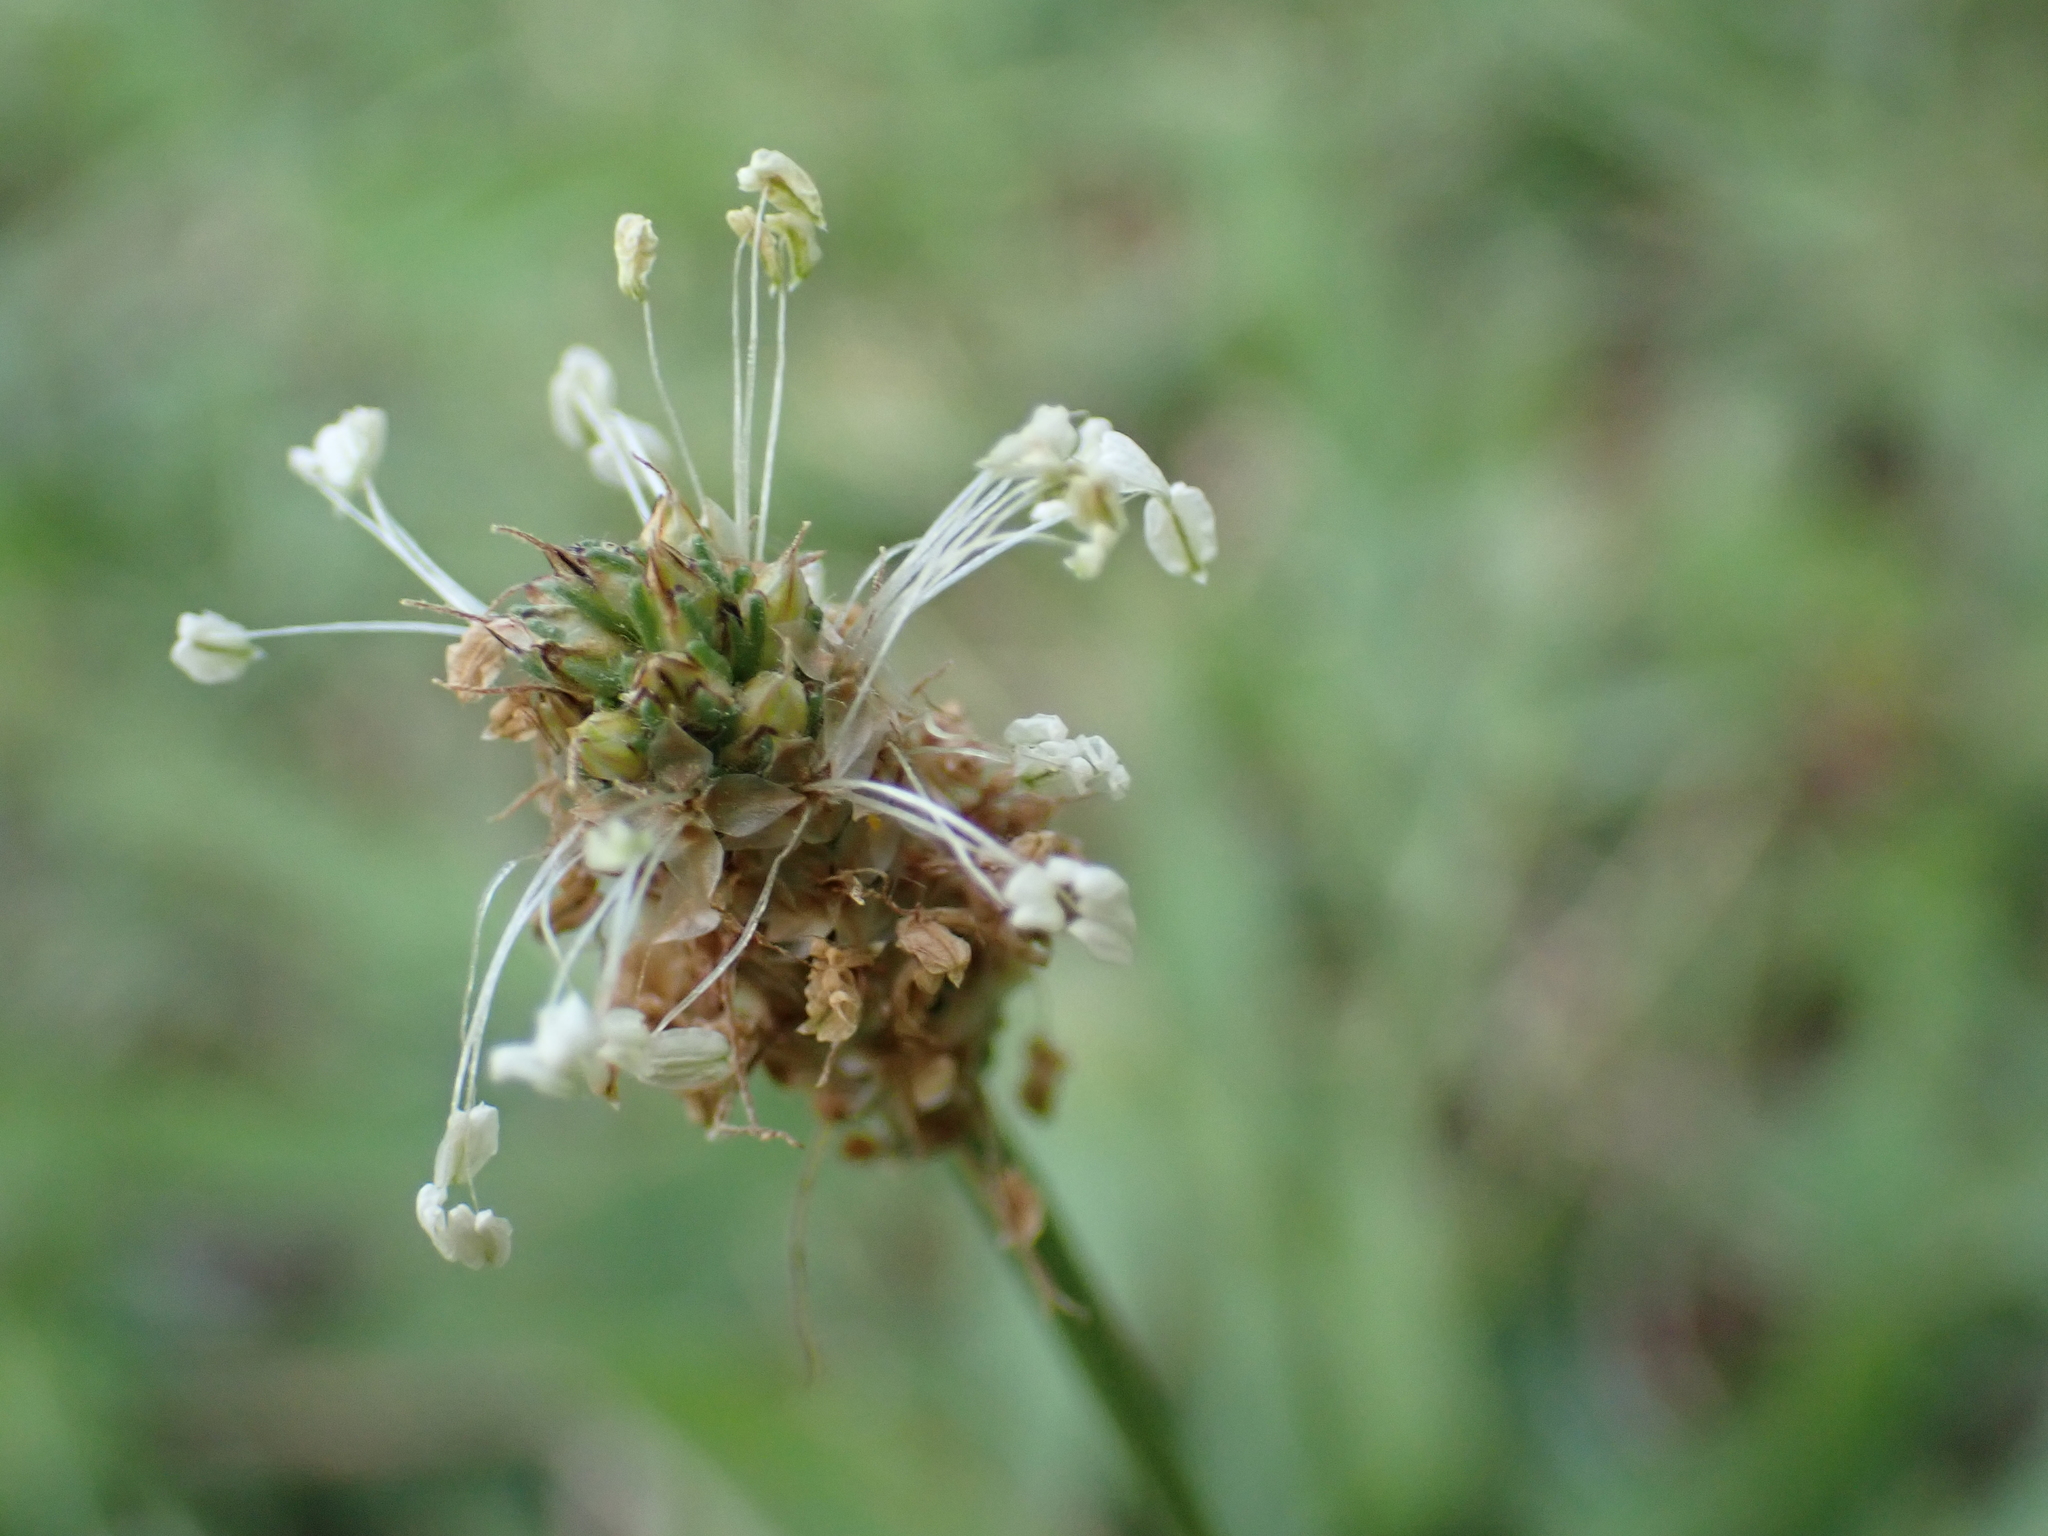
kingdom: Plantae
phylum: Tracheophyta
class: Magnoliopsida
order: Lamiales
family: Plantaginaceae
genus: Plantago
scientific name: Plantago lanceolata
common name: Ribwort plantain
